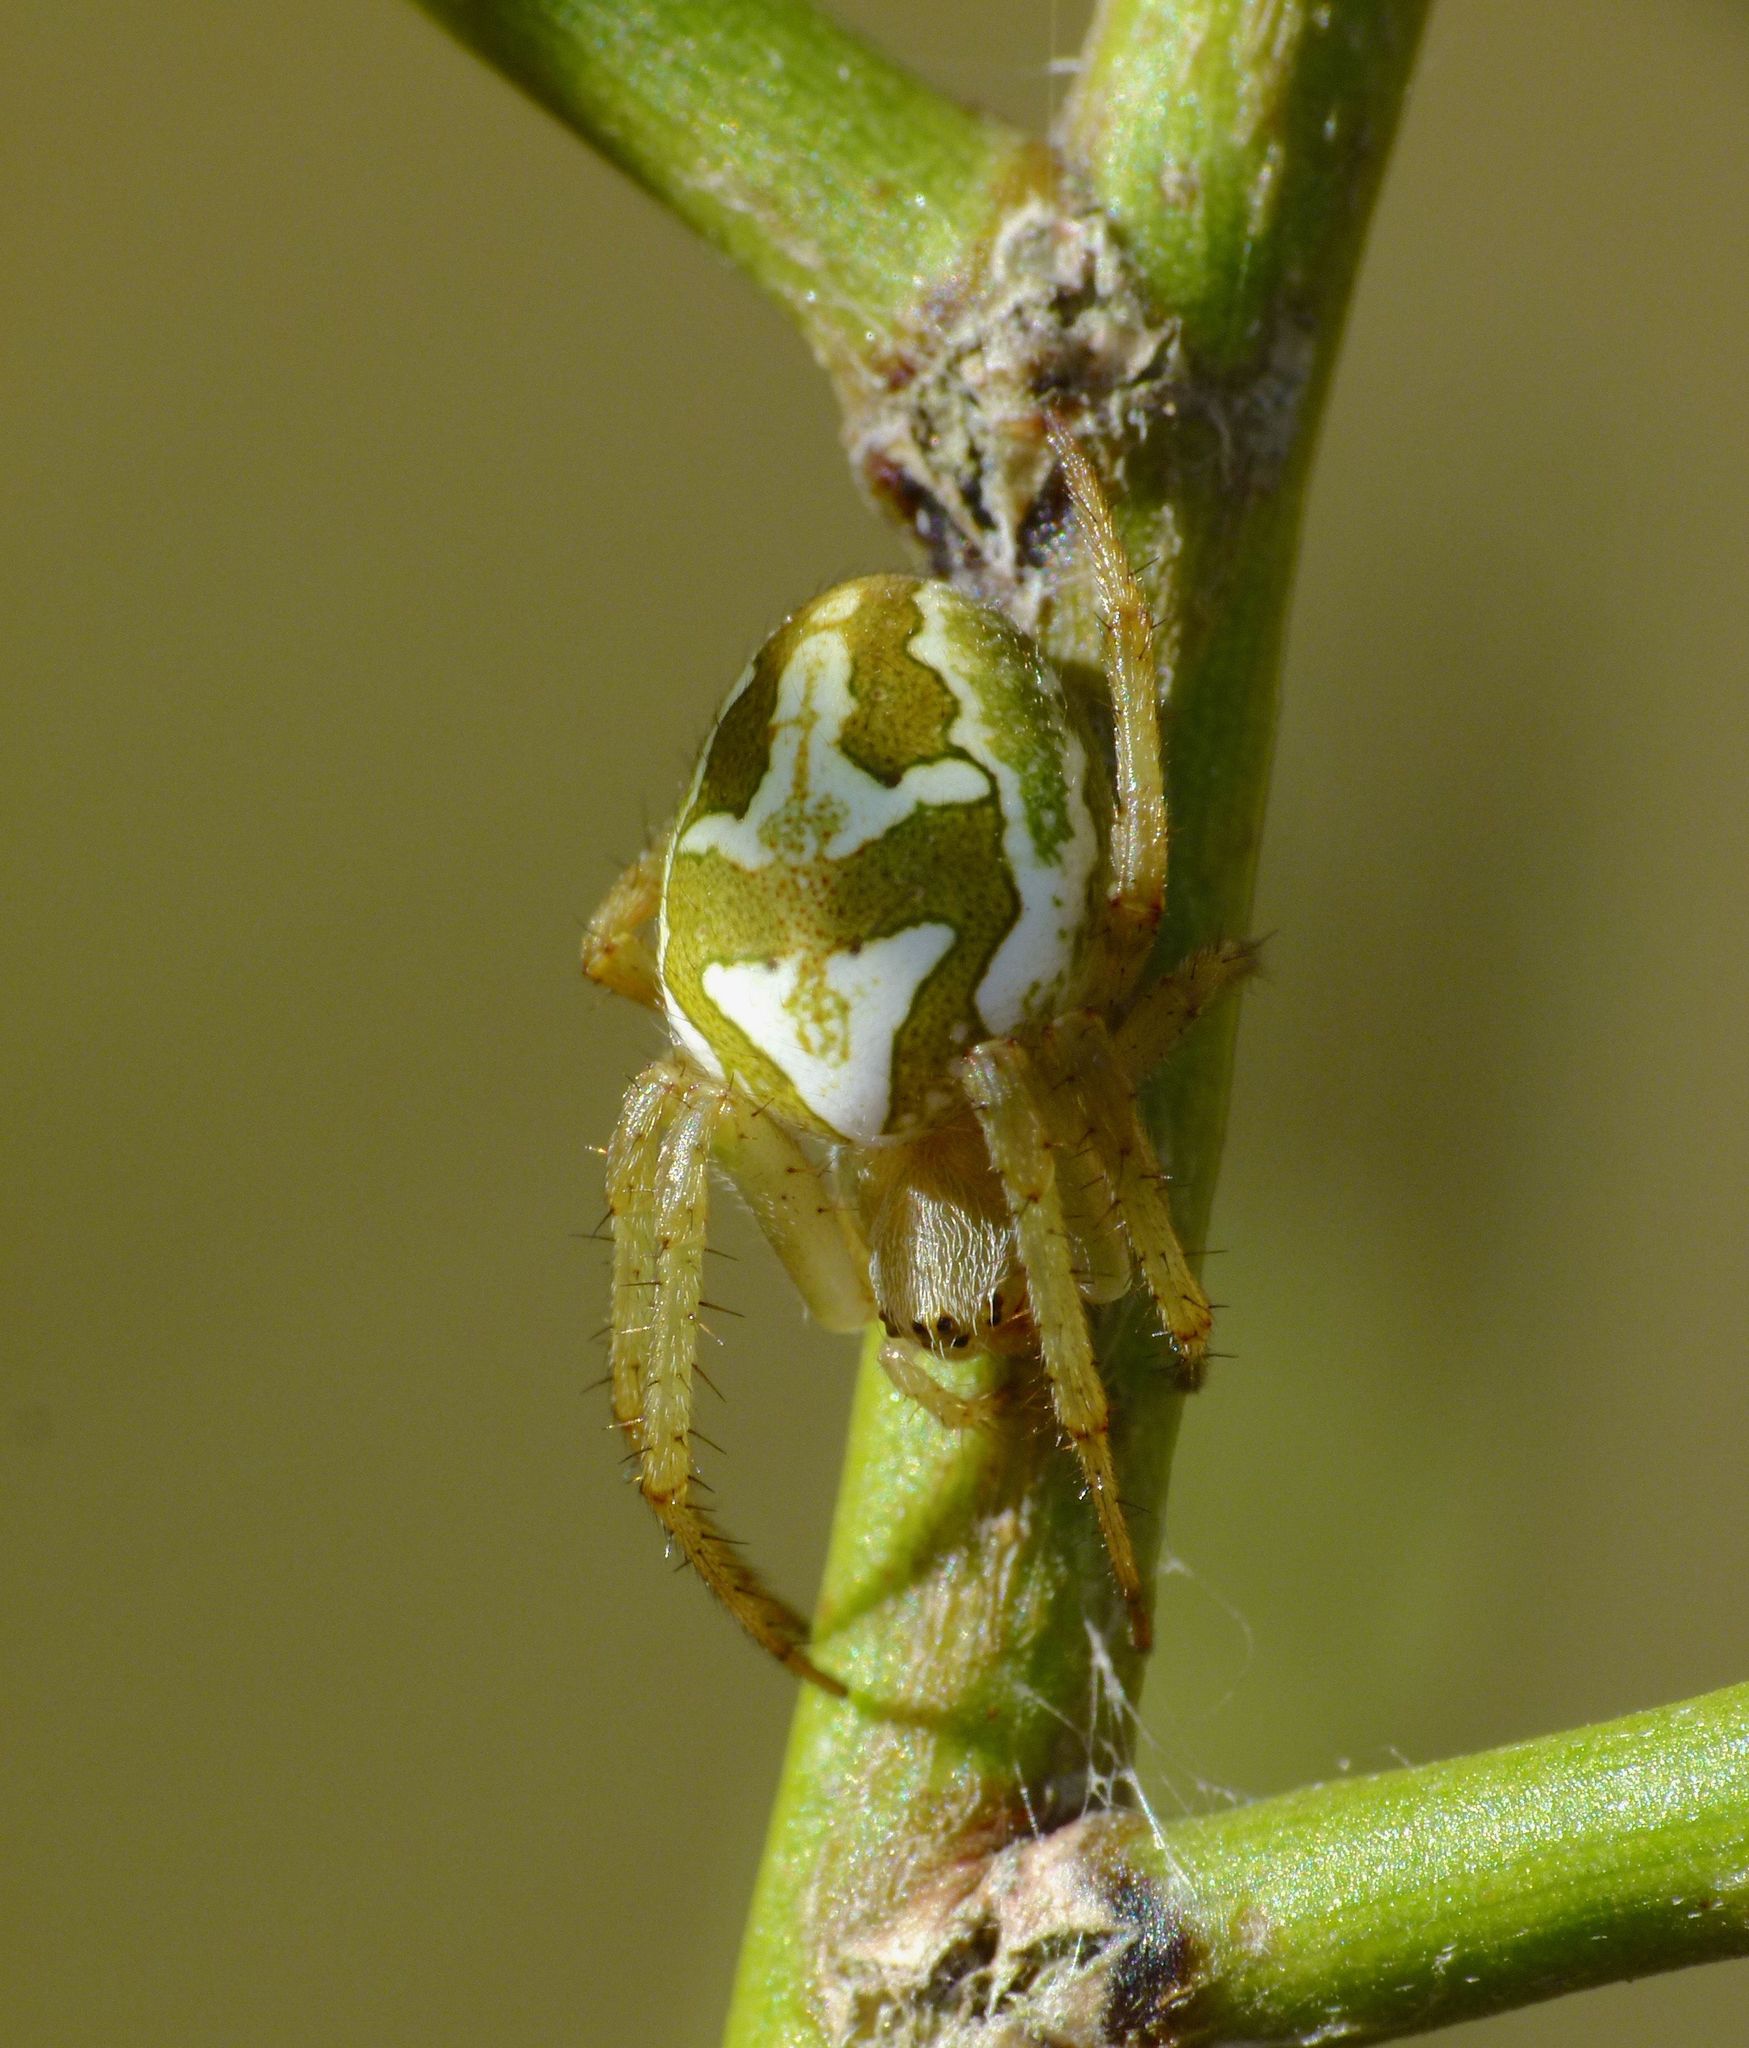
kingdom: Animalia
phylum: Arthropoda
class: Arachnida
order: Araneae
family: Araneidae
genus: Colaranea
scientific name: Colaranea verutum
